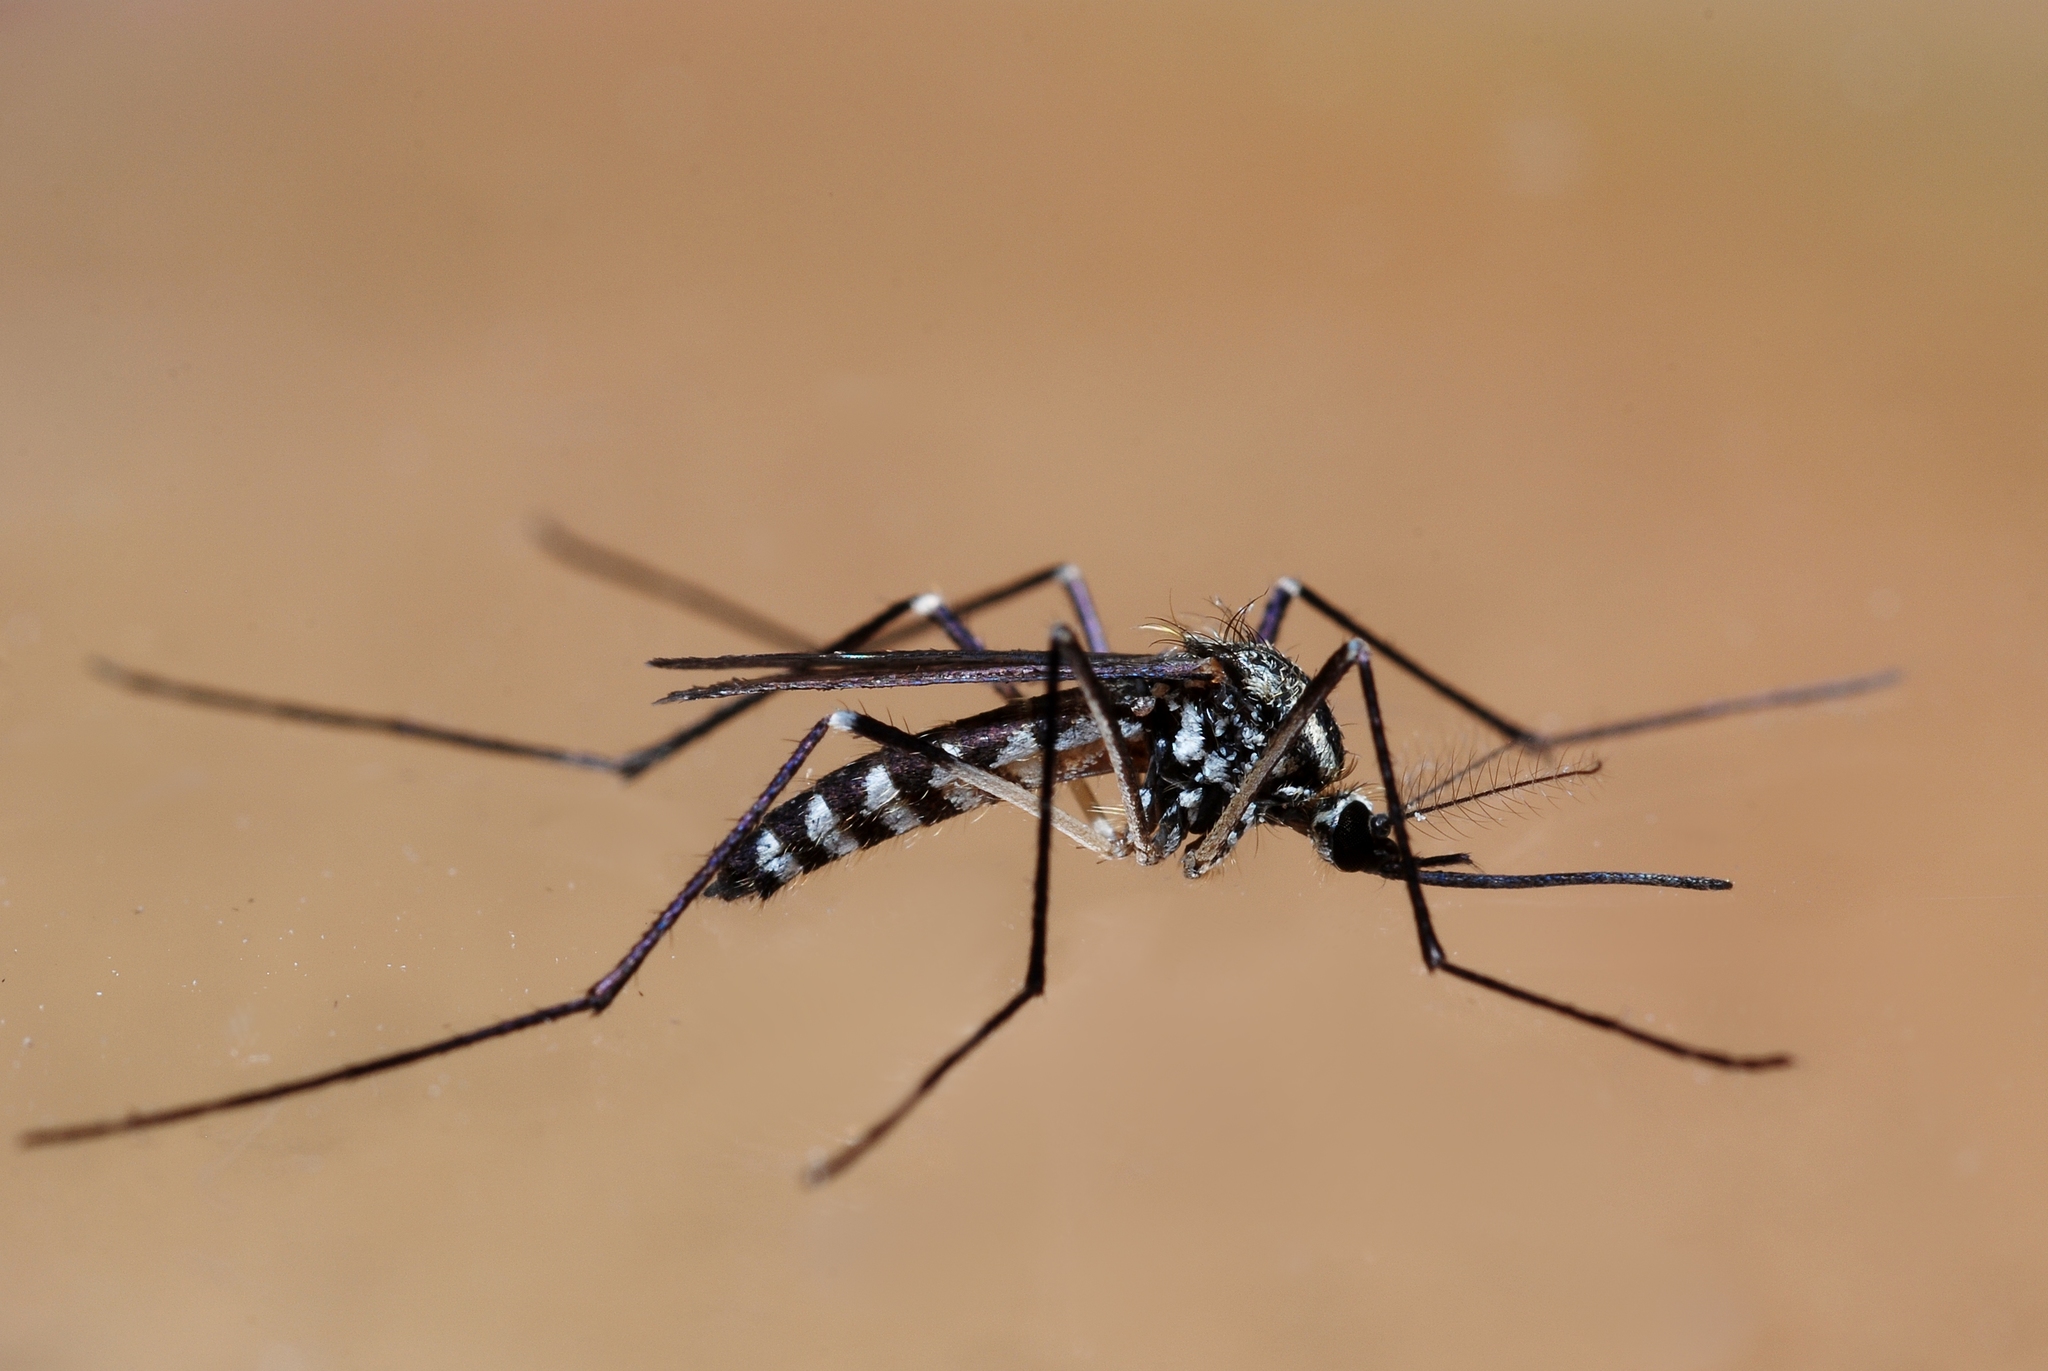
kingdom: Animalia
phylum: Arthropoda
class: Insecta
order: Diptera
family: Culicidae
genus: Aedes
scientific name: Aedes geniculatus
